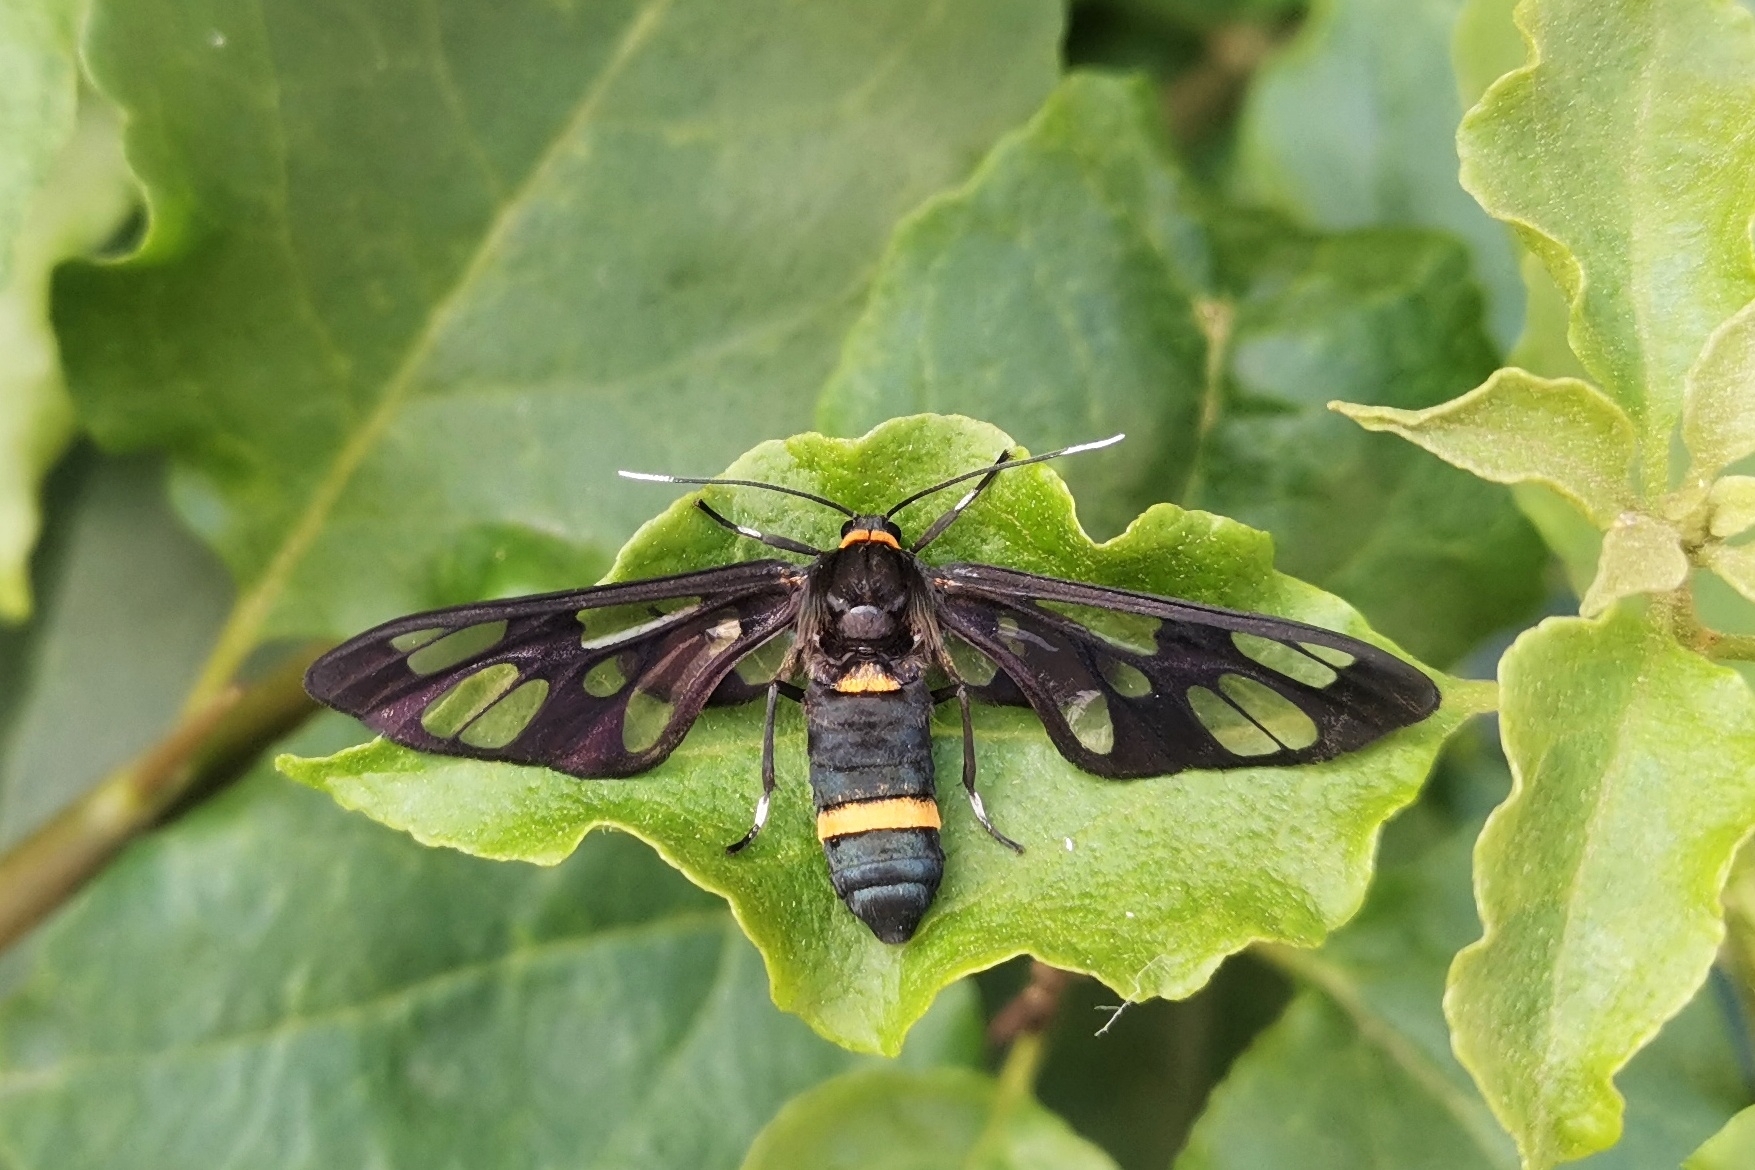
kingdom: Animalia
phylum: Arthropoda
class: Insecta
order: Lepidoptera
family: Erebidae
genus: Syntomoides
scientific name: Syntomoides imaon
